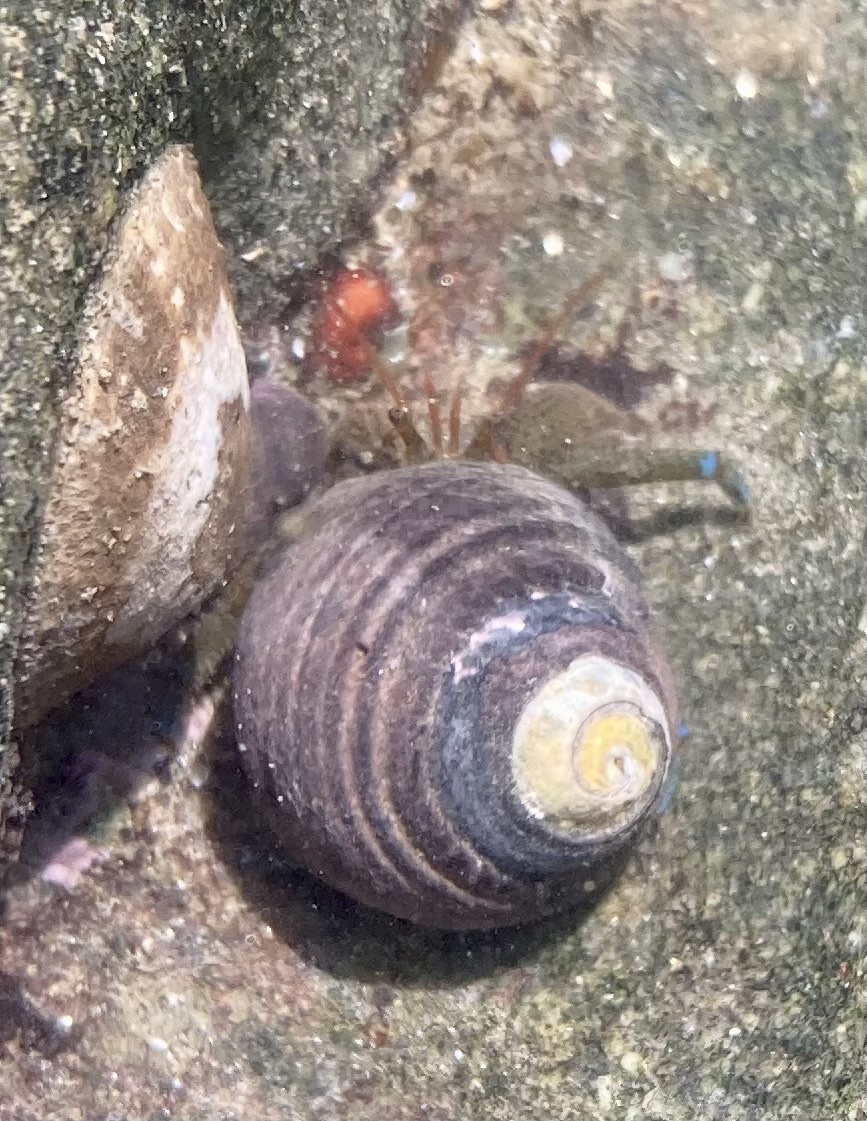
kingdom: Animalia
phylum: Arthropoda
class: Malacostraca
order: Decapoda
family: Paguridae
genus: Pagurus
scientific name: Pagurus samuelis
